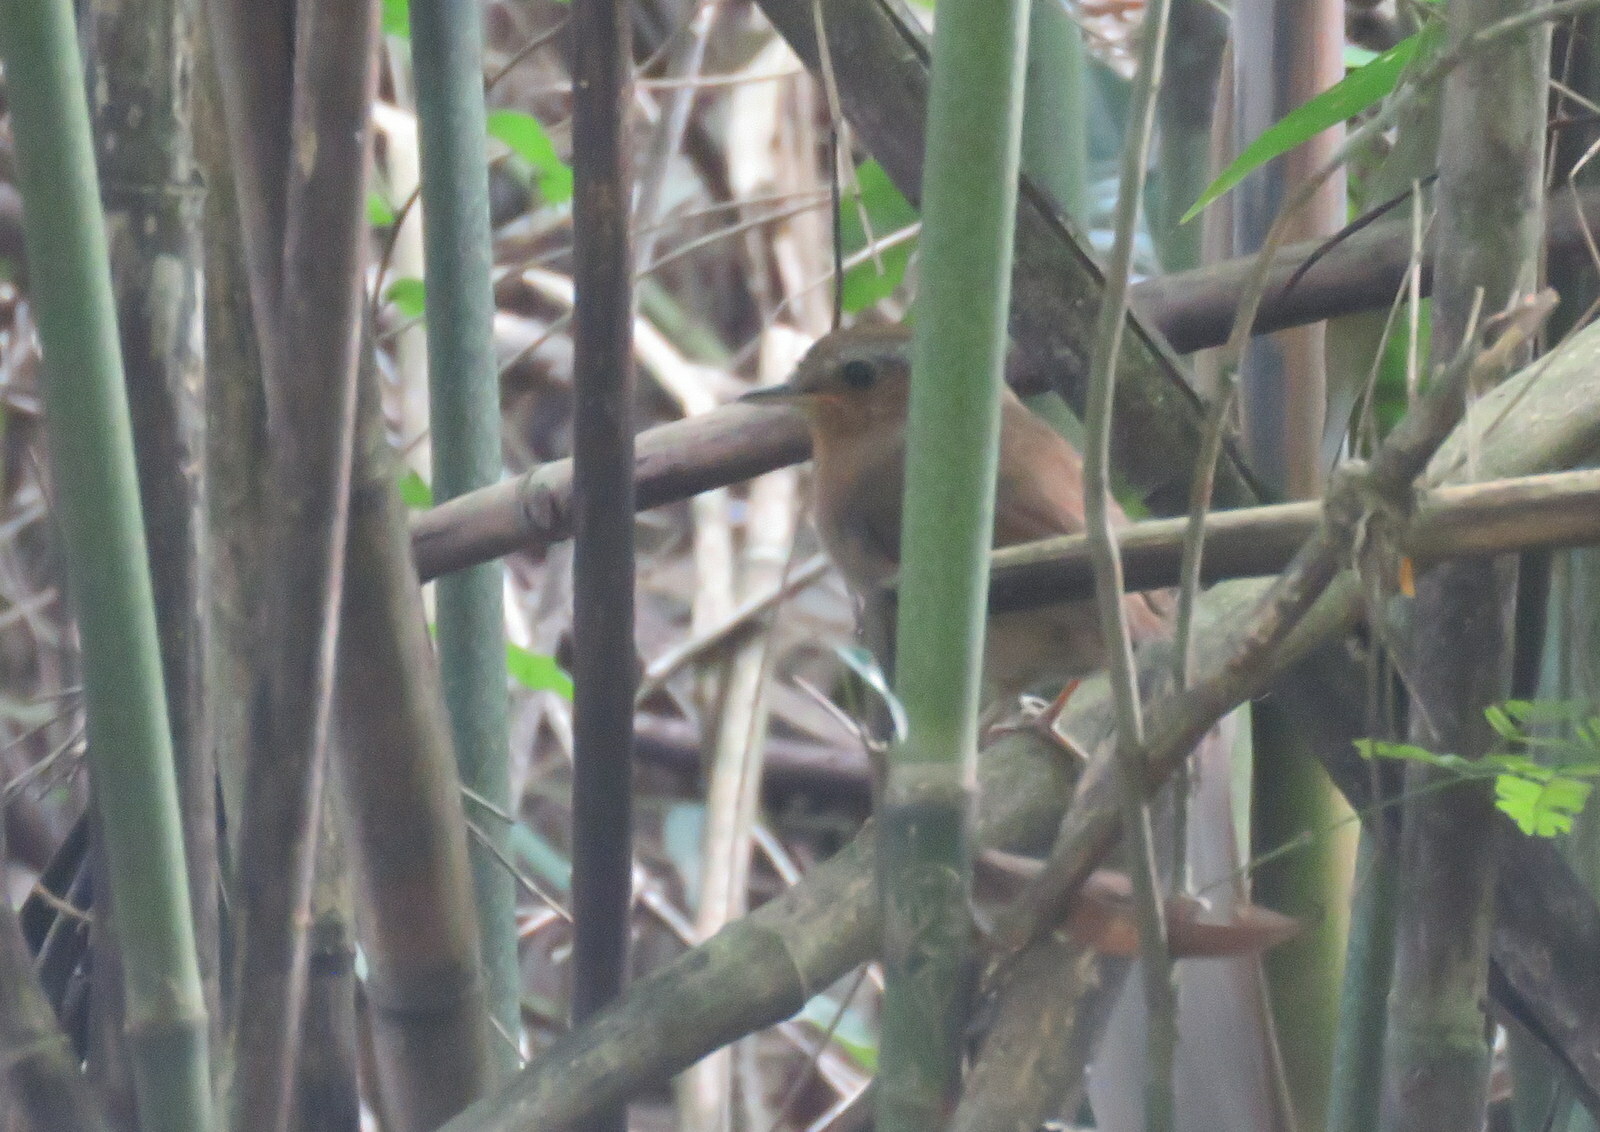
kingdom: Animalia
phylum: Chordata
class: Aves
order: Passeriformes
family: Conopophagidae
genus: Conopophaga
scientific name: Conopophaga lineata
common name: Rufous gnateater
